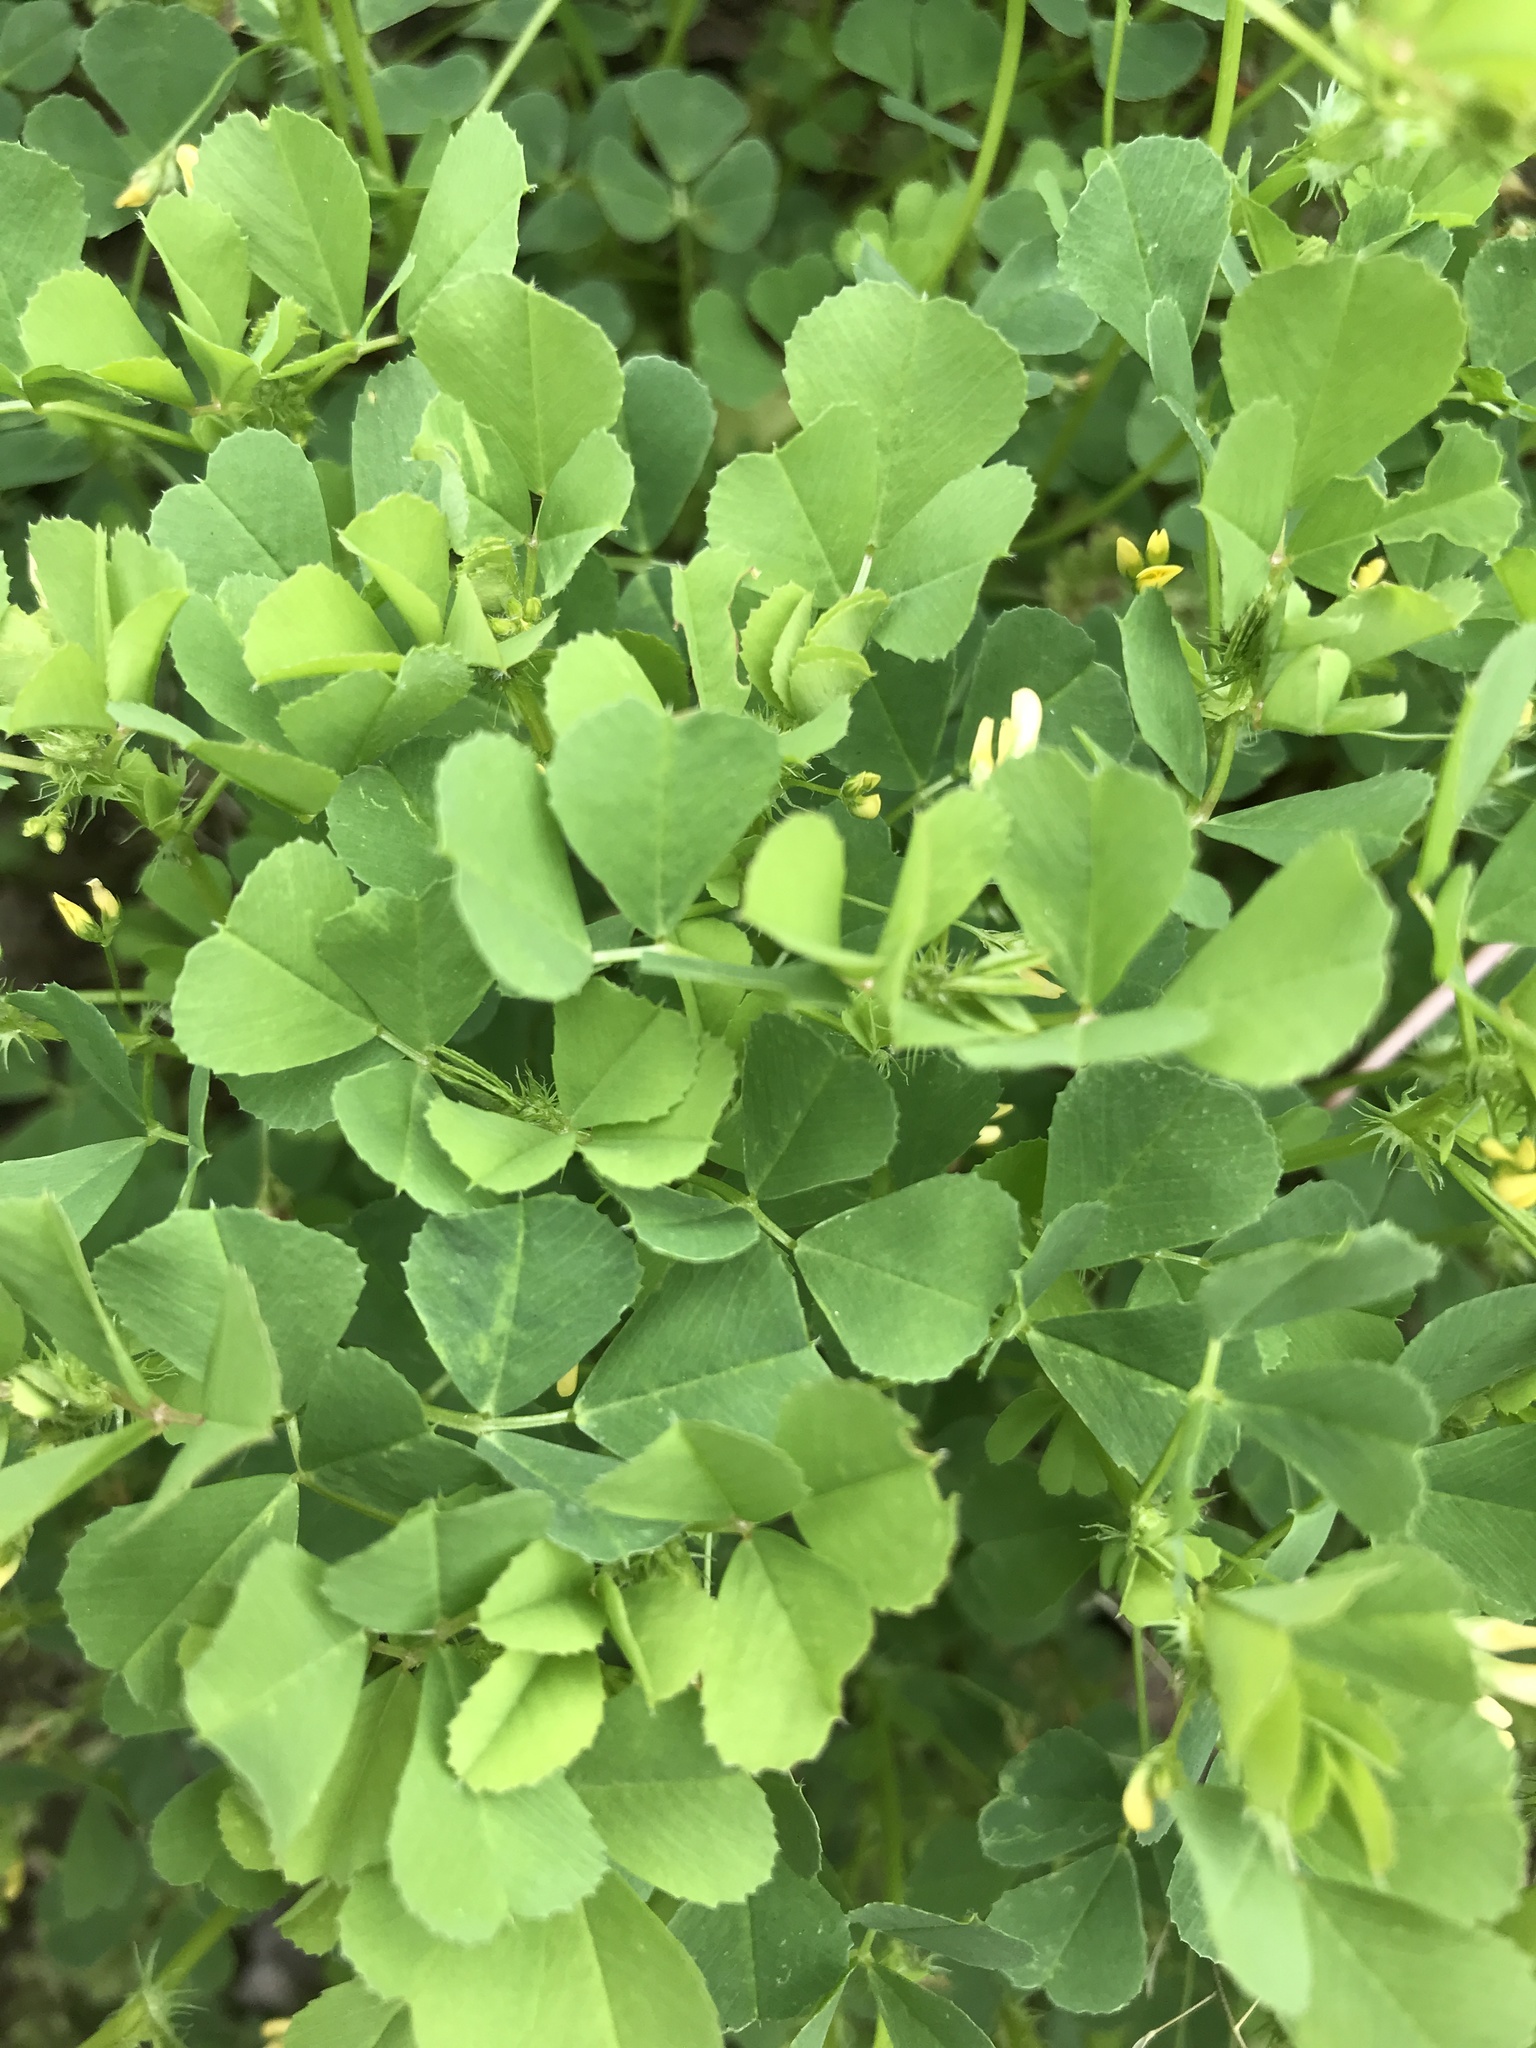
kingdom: Plantae
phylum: Tracheophyta
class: Magnoliopsida
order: Fabales
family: Fabaceae
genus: Medicago
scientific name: Medicago polymorpha
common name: Burclover
